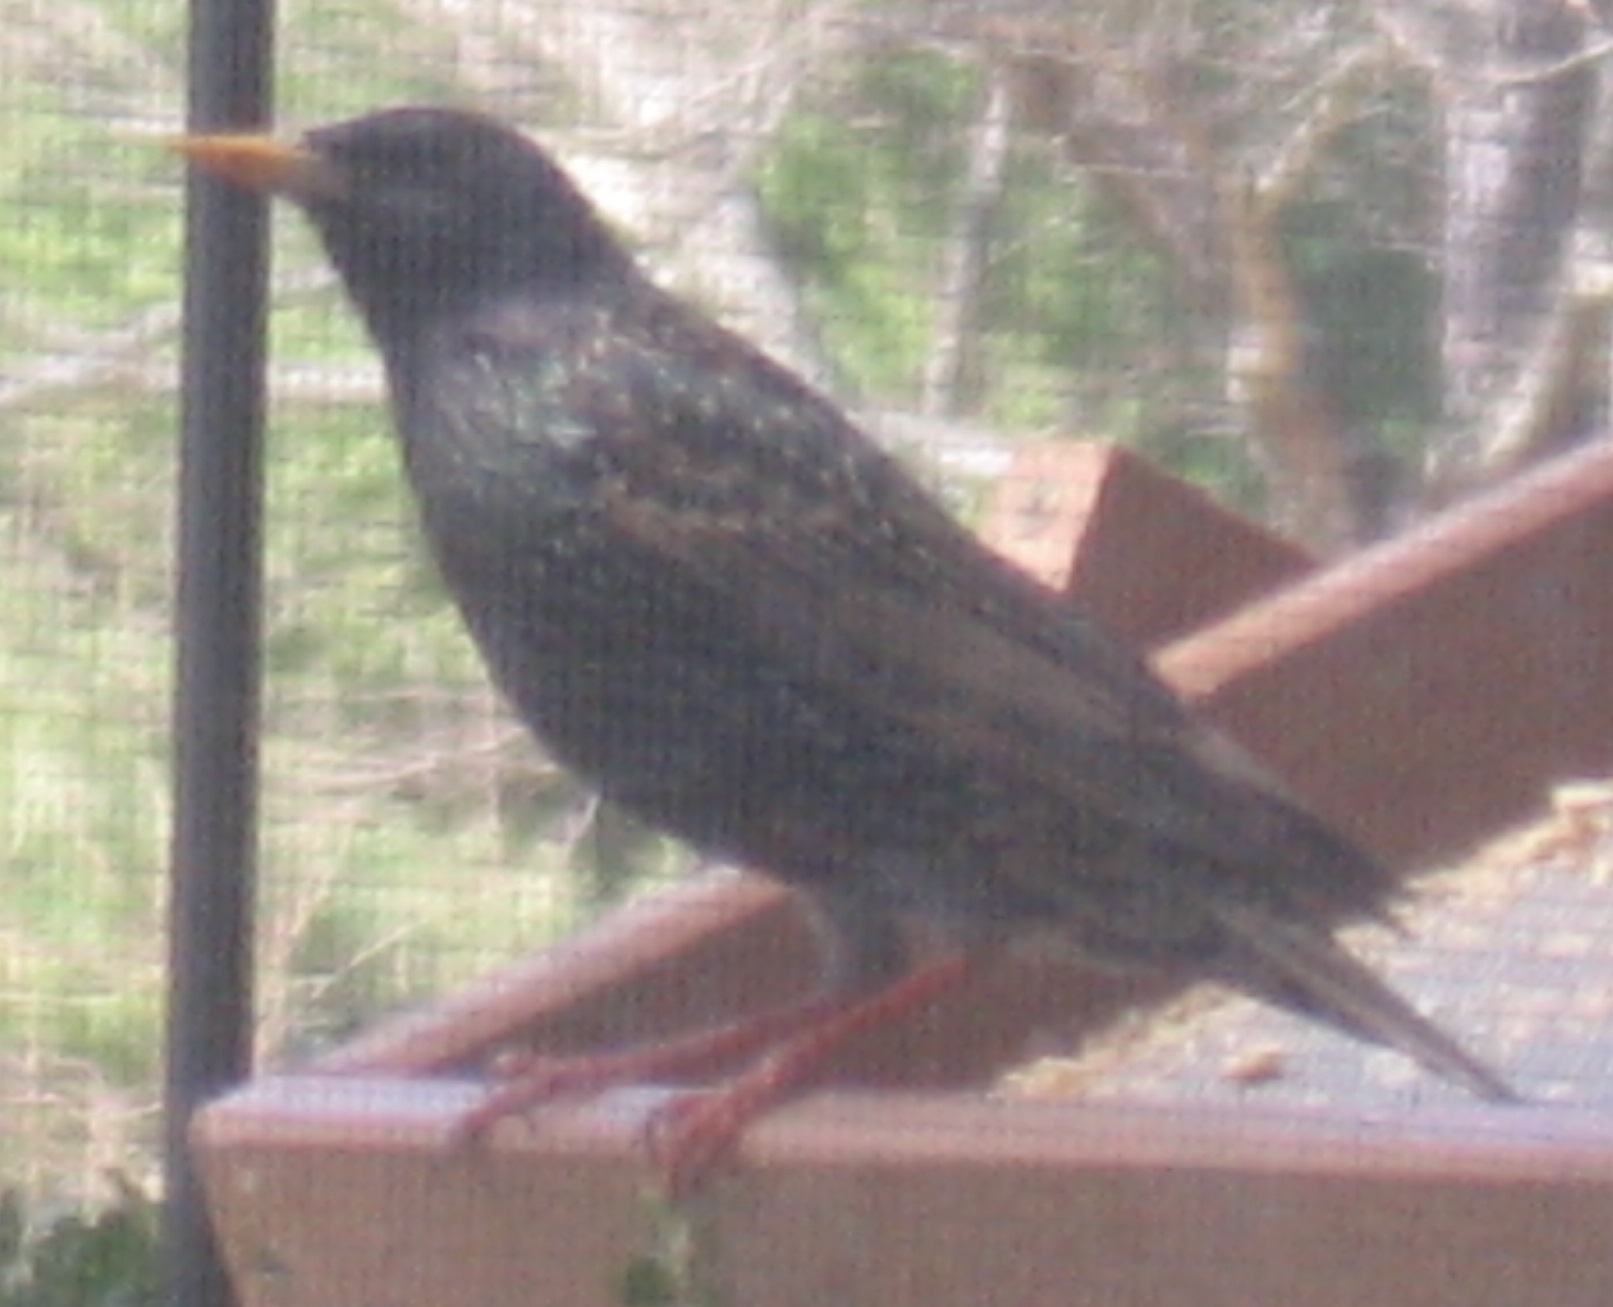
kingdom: Animalia
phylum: Chordata
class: Aves
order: Passeriformes
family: Sturnidae
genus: Sturnus
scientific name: Sturnus vulgaris
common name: Common starling
